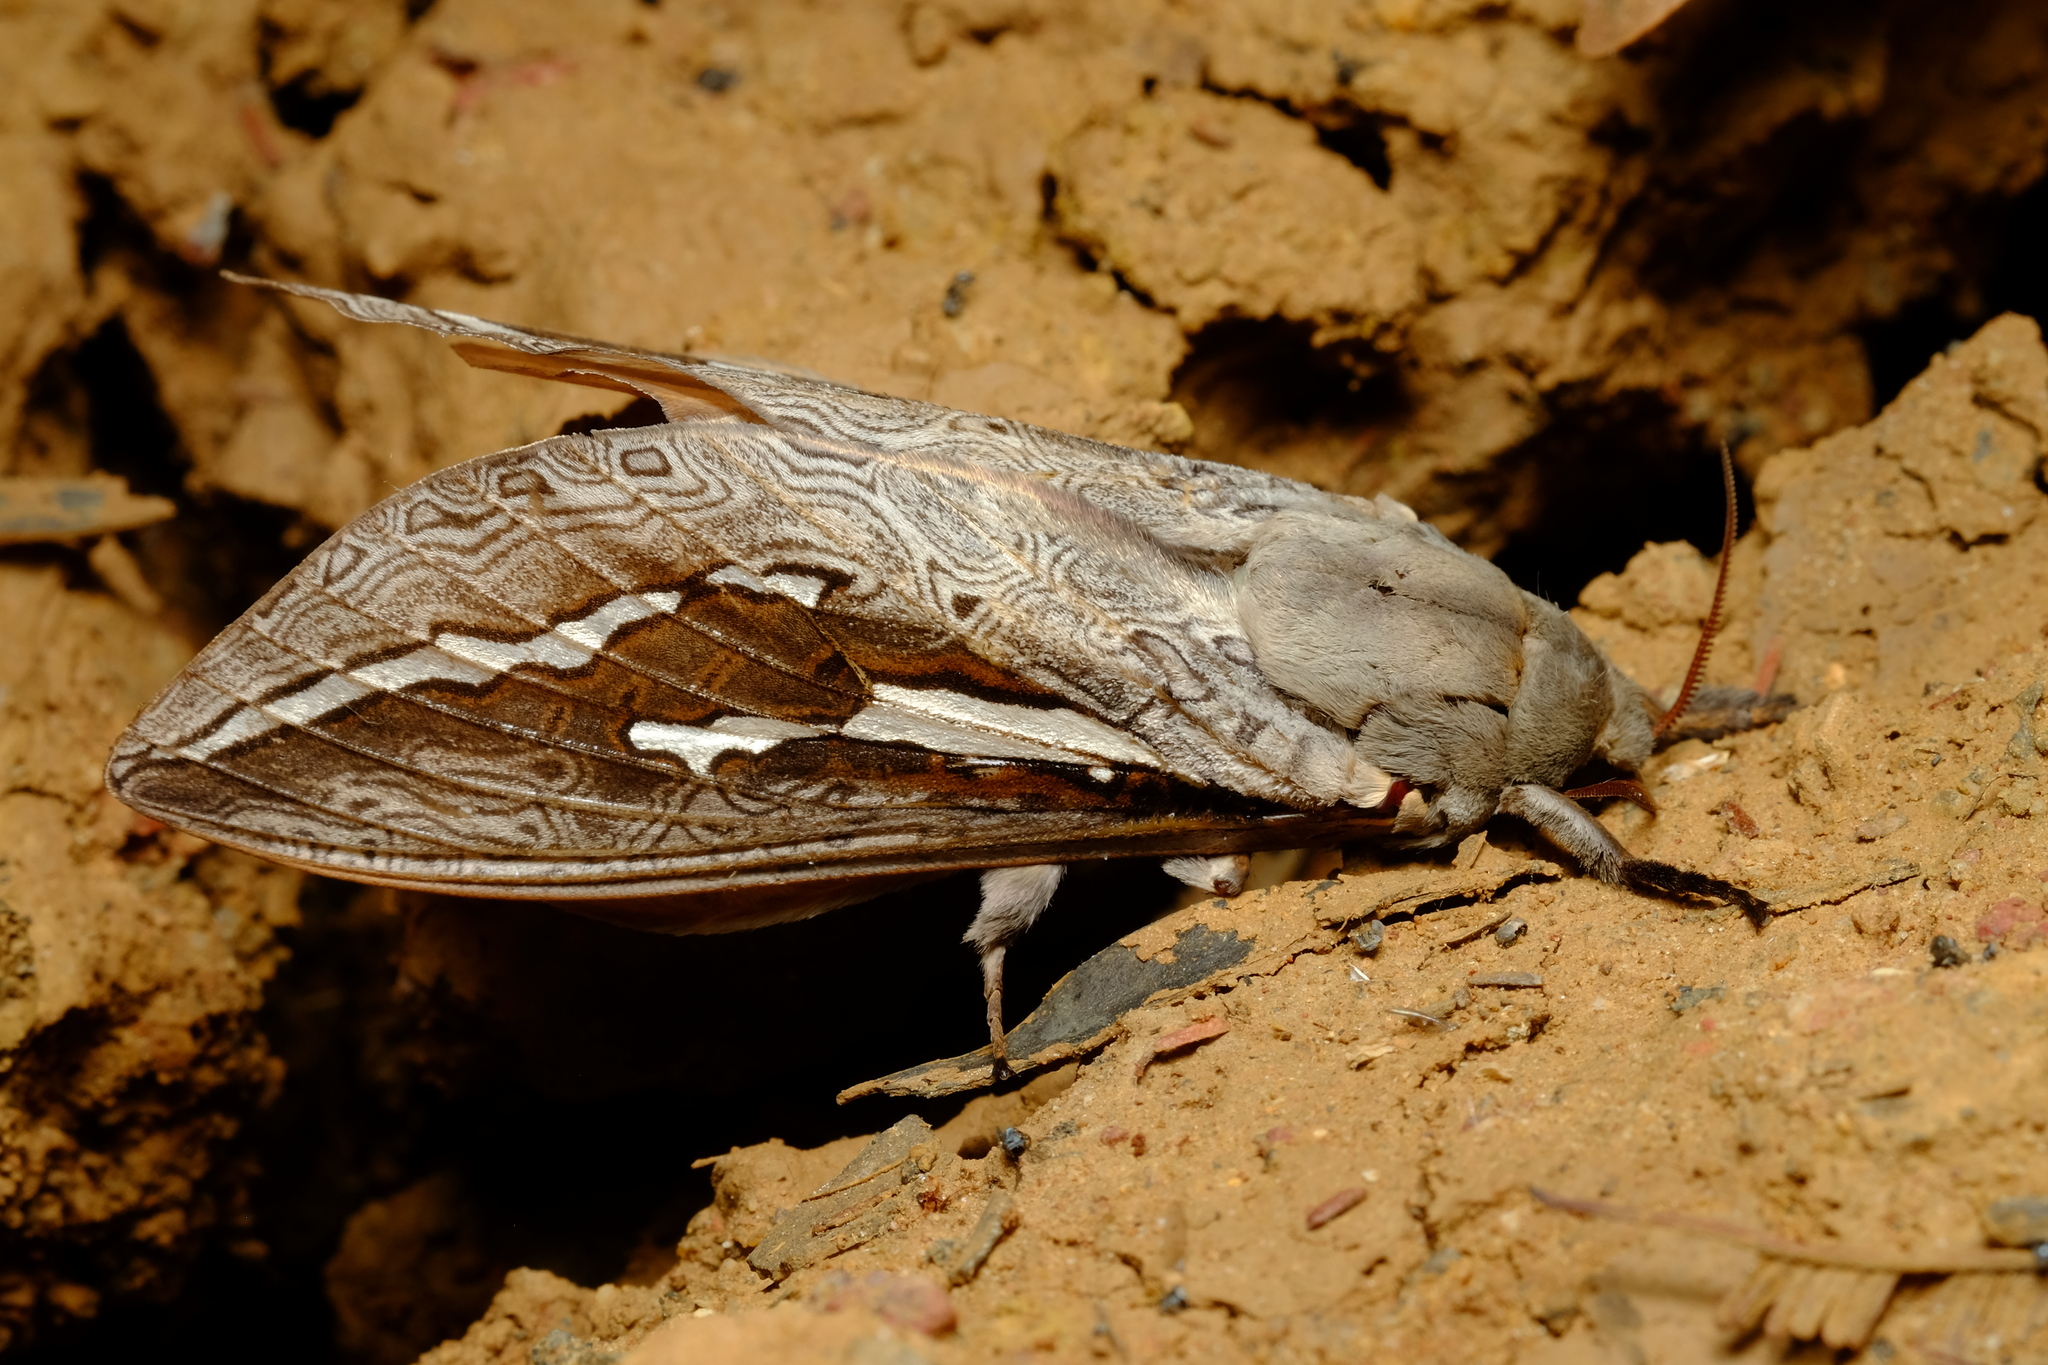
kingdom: Animalia
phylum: Arthropoda
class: Insecta
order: Lepidoptera
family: Hepialidae
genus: Abantiades
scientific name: Abantiades labyrinthicus
